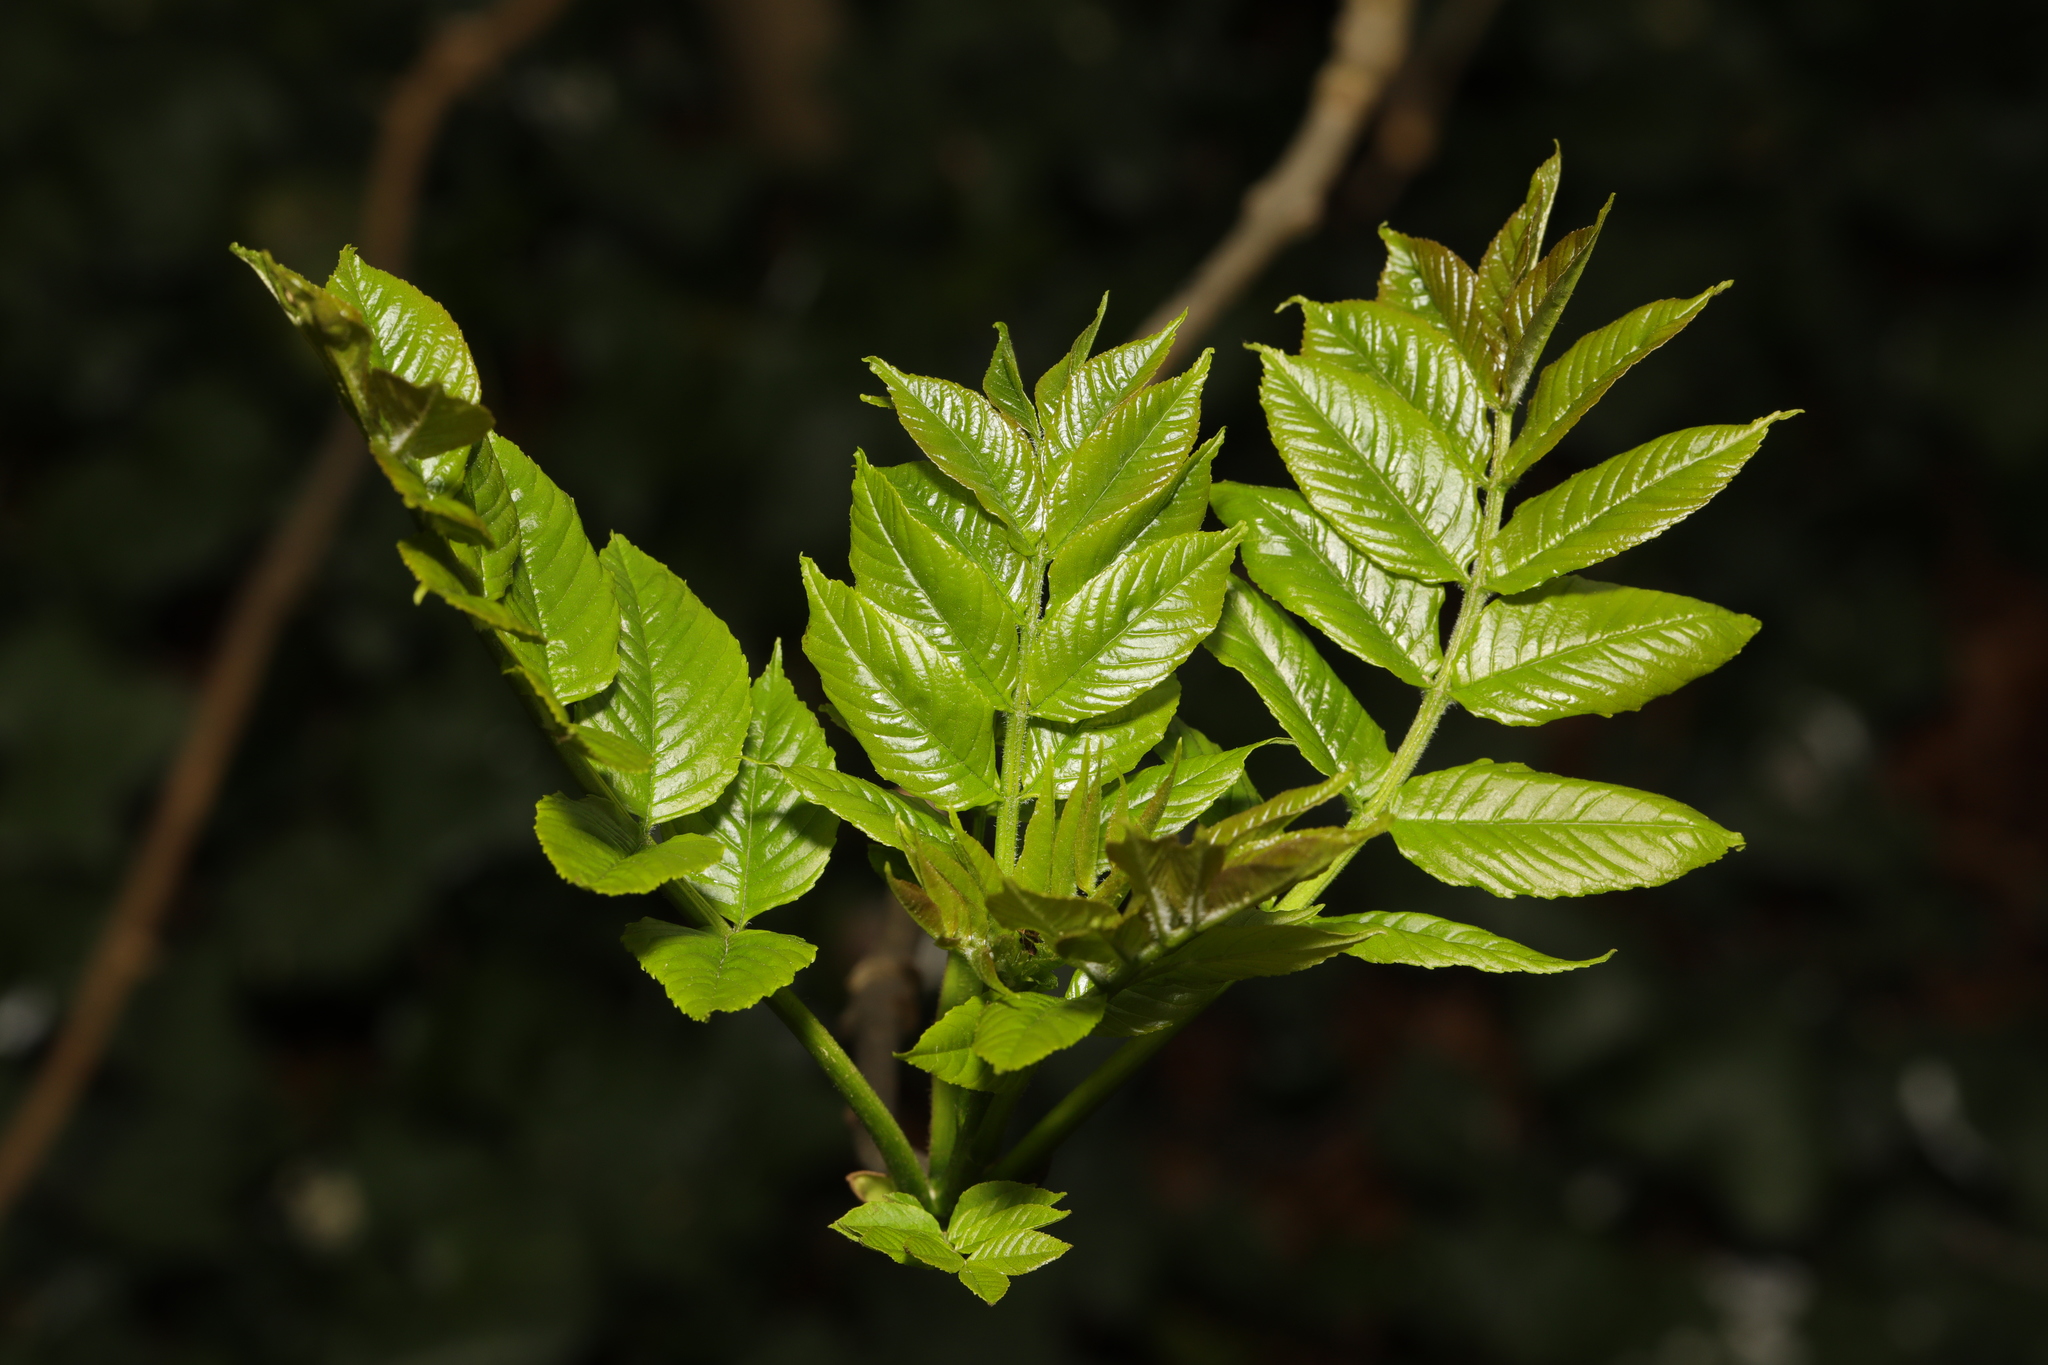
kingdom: Plantae
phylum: Tracheophyta
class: Magnoliopsida
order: Lamiales
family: Oleaceae
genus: Fraxinus
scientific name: Fraxinus excelsior
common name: European ash
